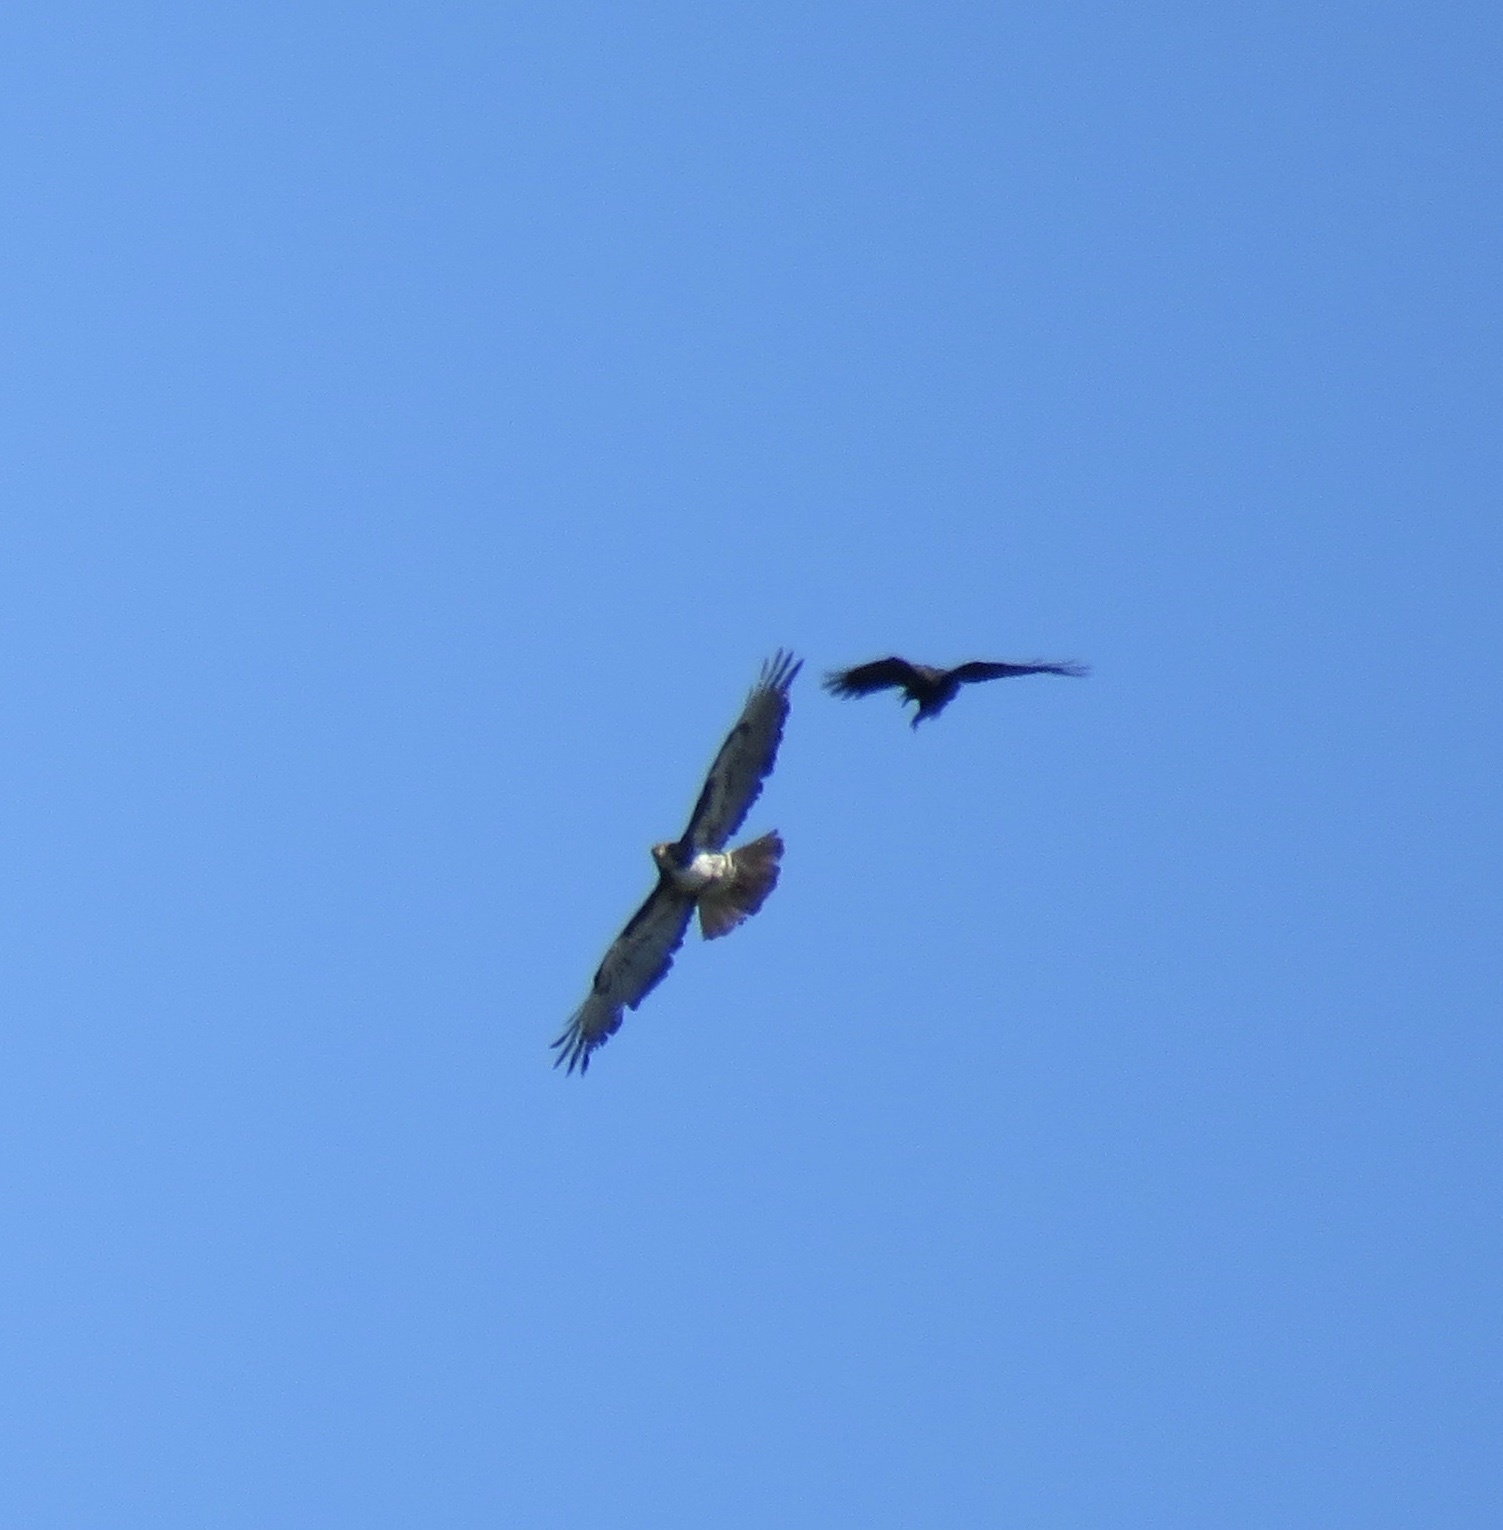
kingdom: Animalia
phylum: Chordata
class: Aves
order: Accipitriformes
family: Accipitridae
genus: Buteo
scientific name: Buteo jamaicensis
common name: Red-tailed hawk
